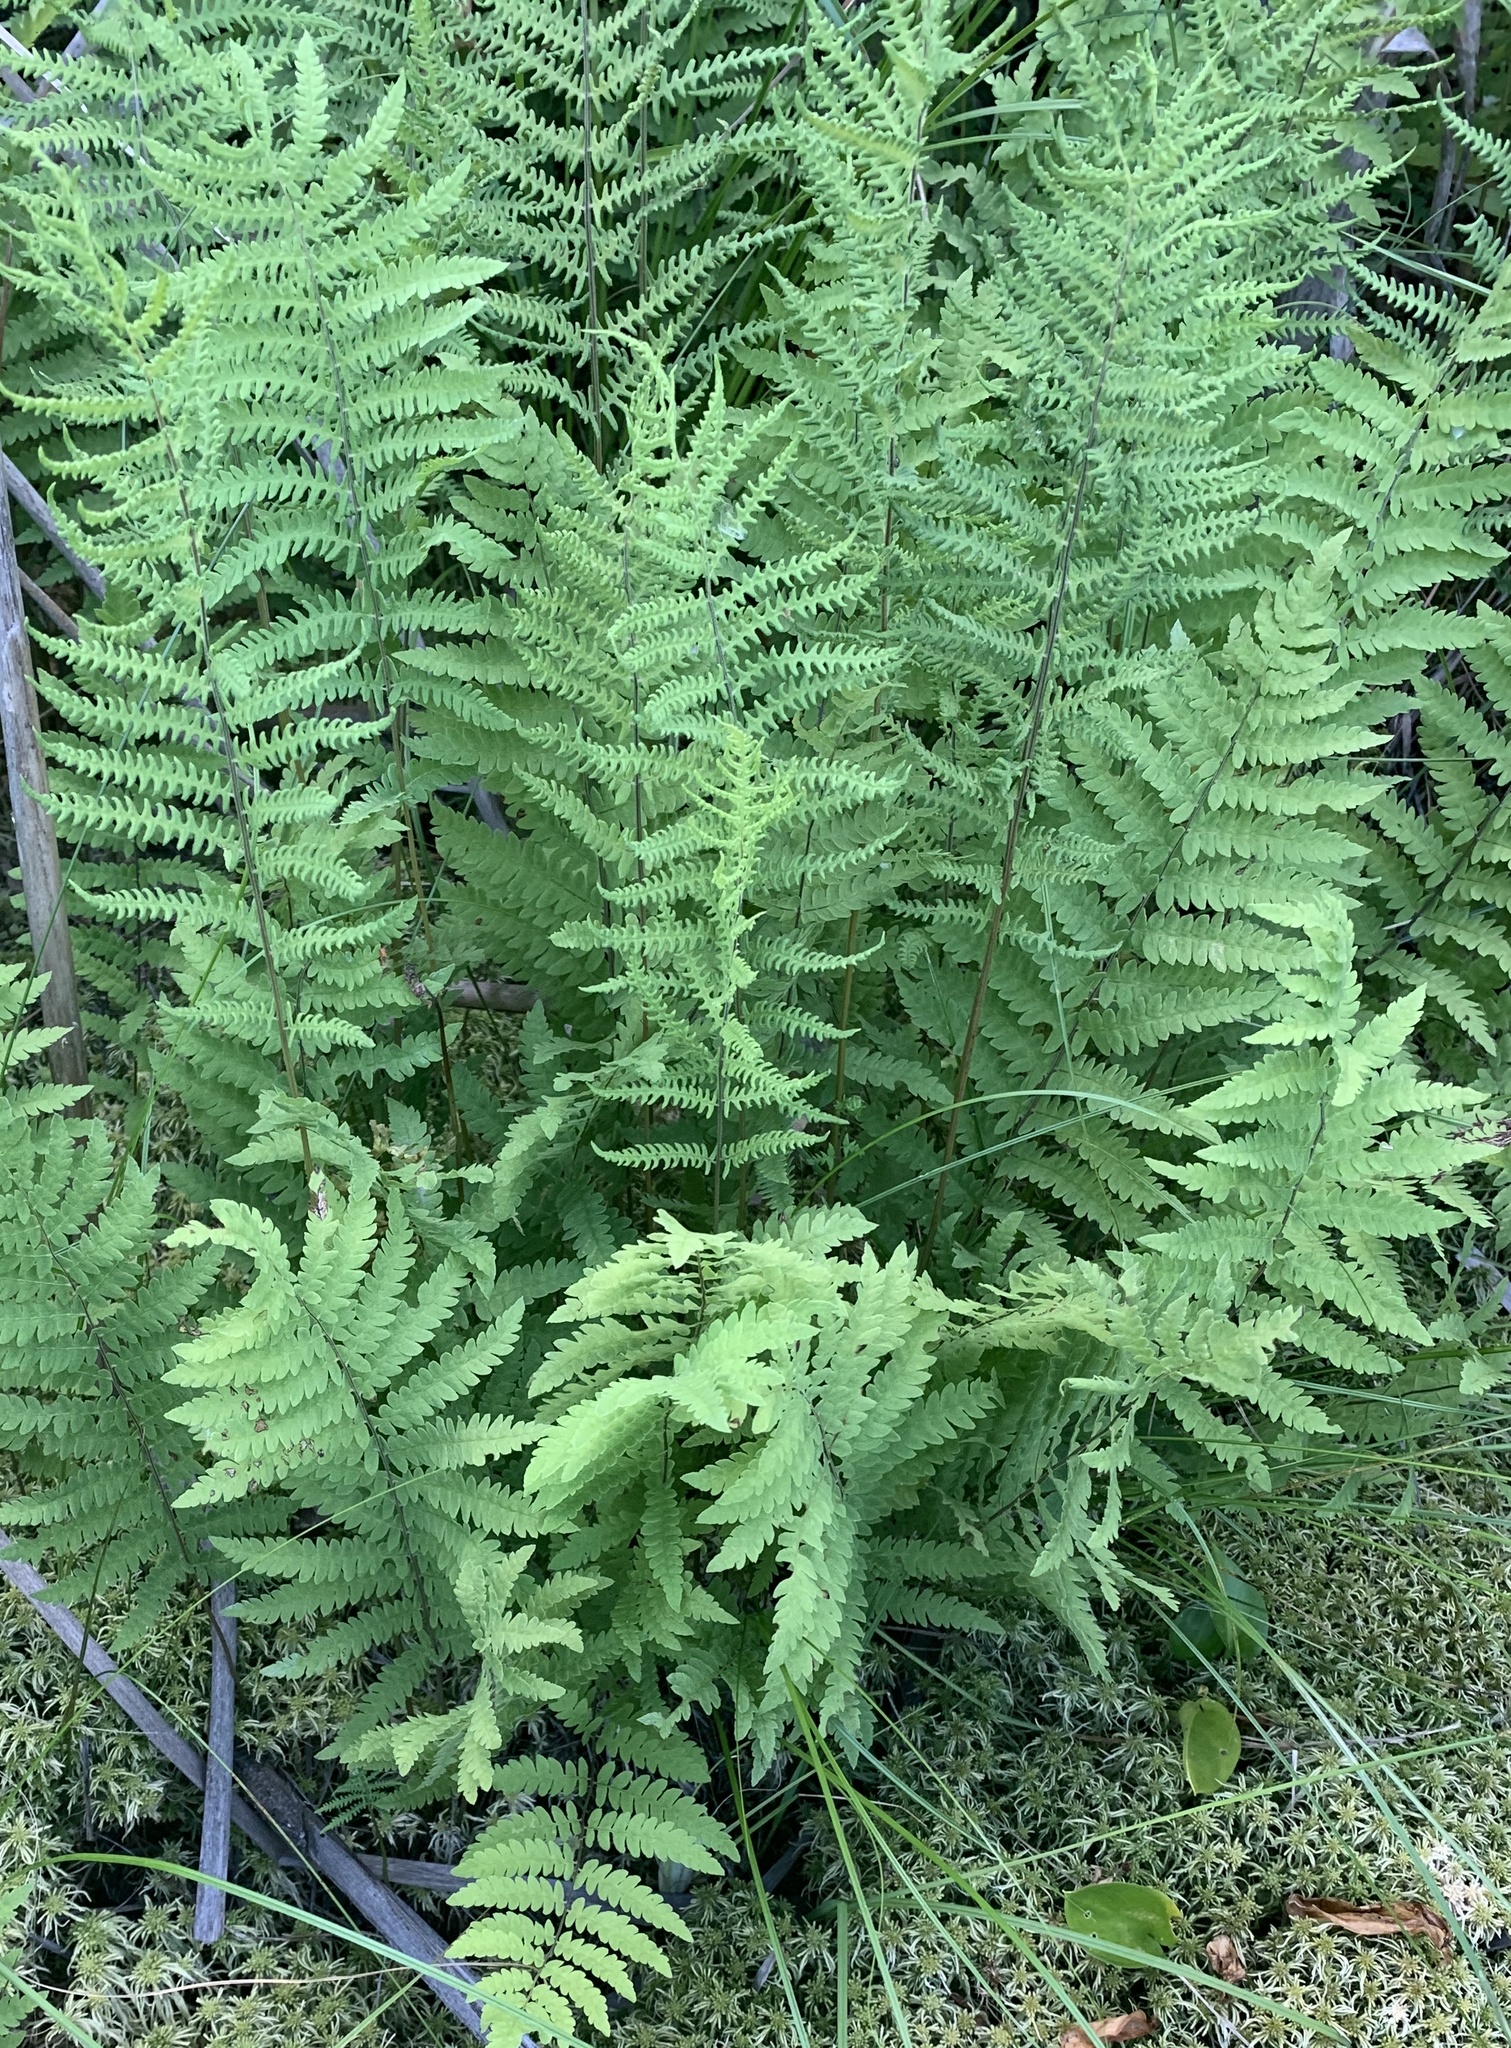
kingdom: Plantae
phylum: Tracheophyta
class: Polypodiopsida
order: Polypodiales
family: Thelypteridaceae
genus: Thelypteris
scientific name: Thelypteris palustris
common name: Marsh fern
